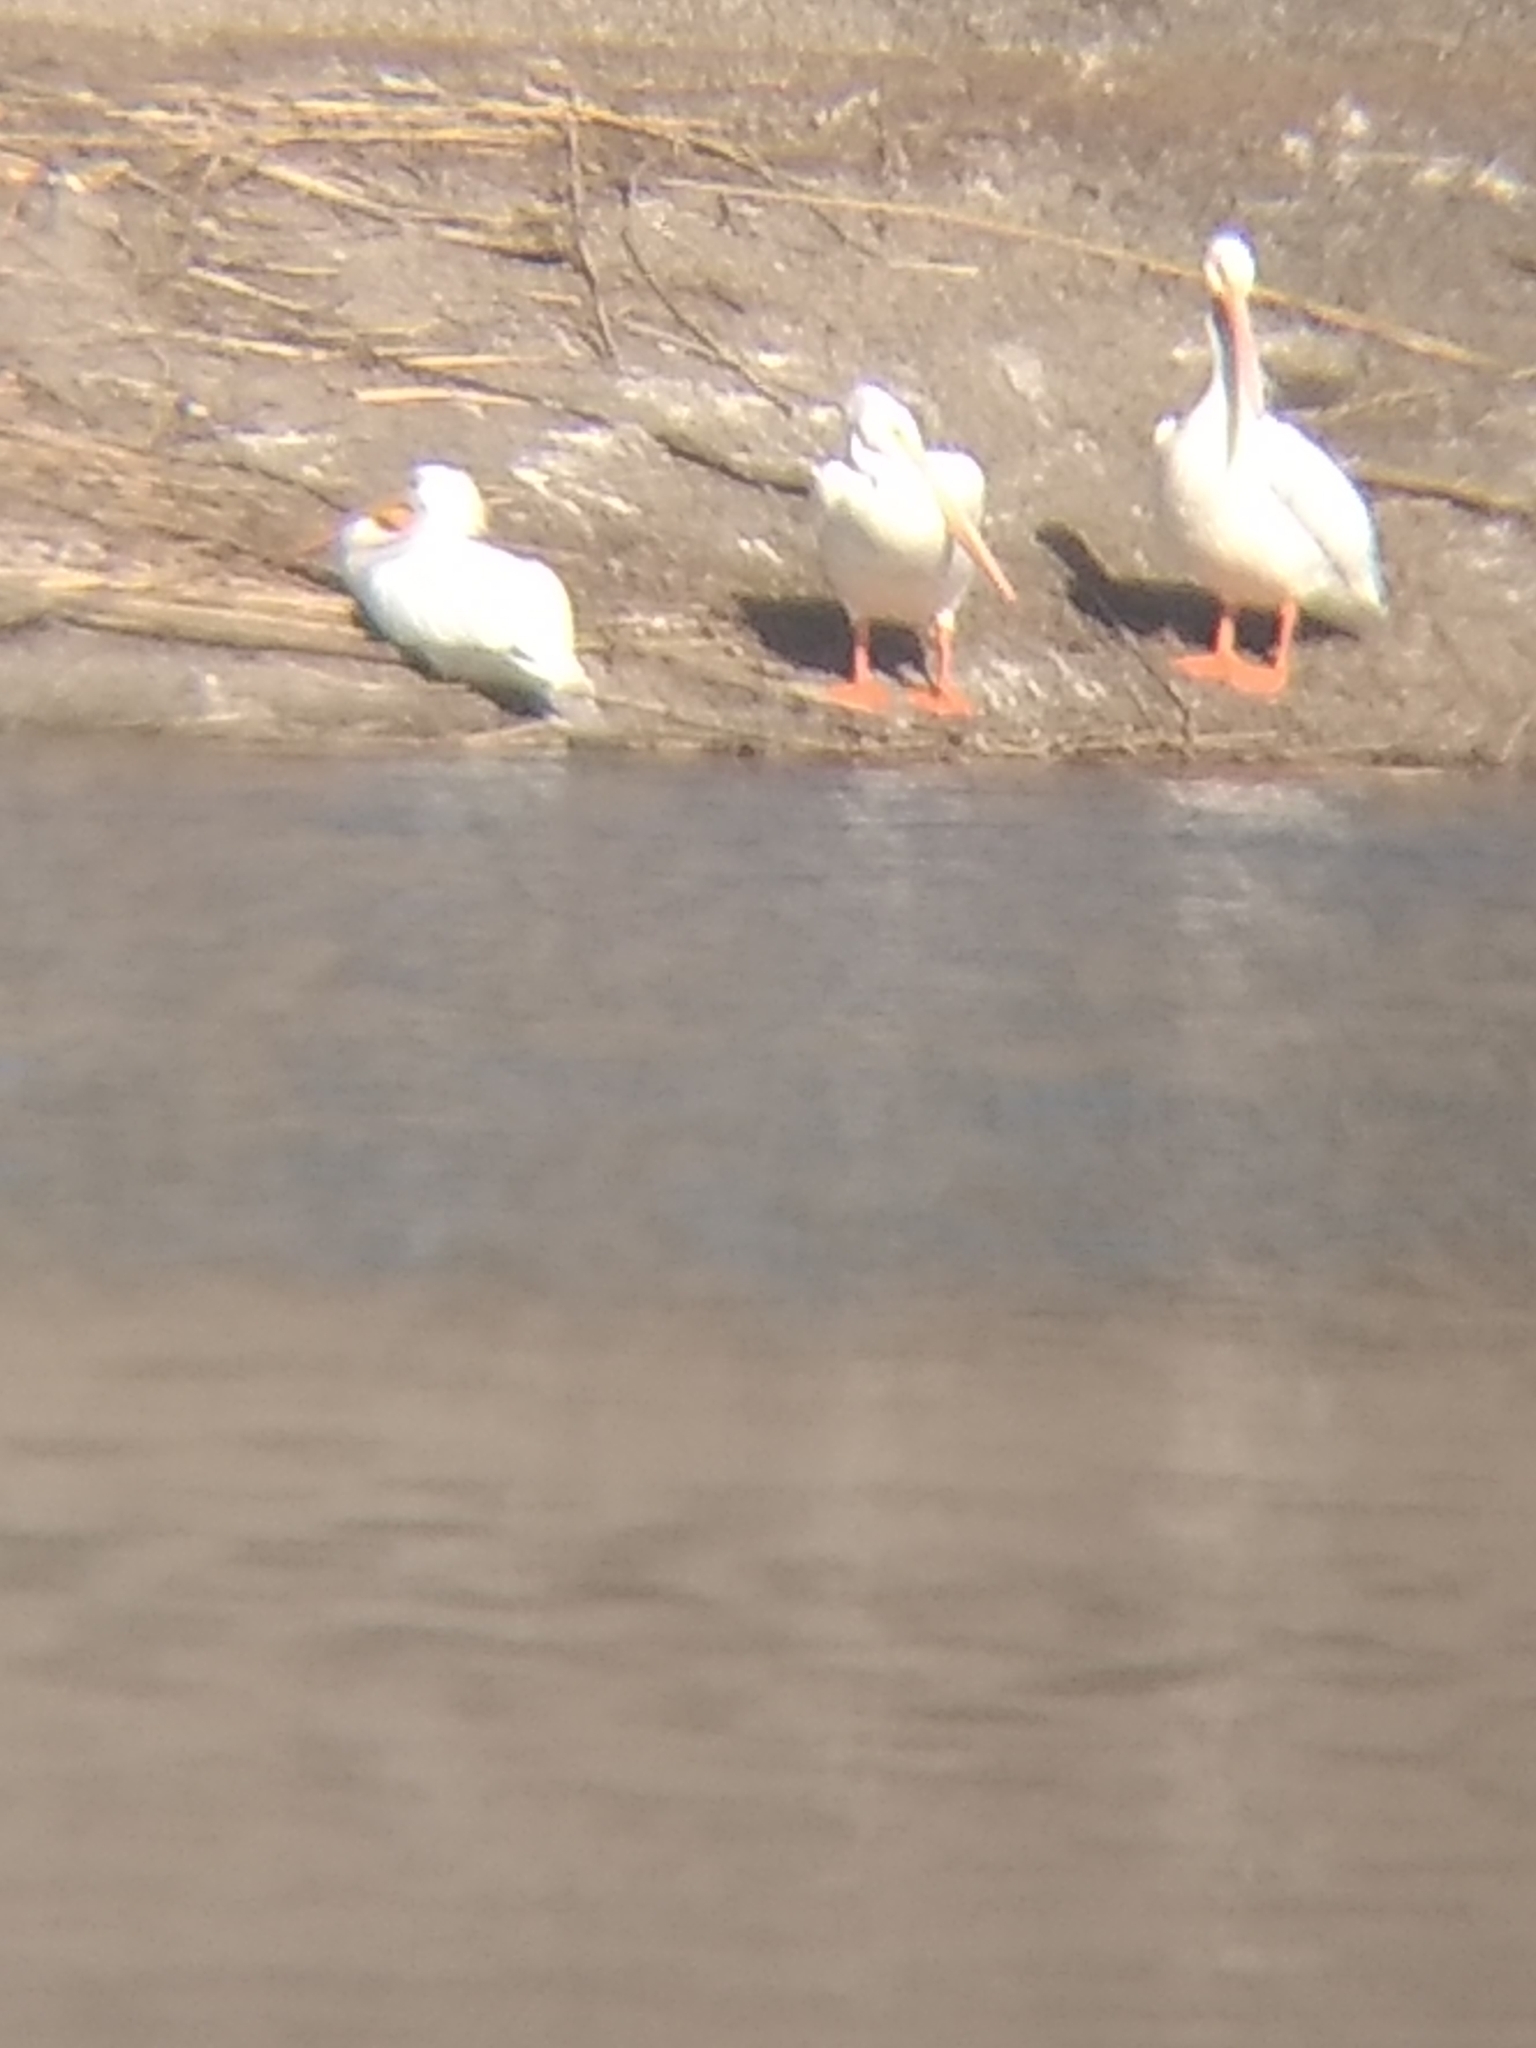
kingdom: Animalia
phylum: Chordata
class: Aves
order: Pelecaniformes
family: Pelecanidae
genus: Pelecanus
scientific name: Pelecanus erythrorhynchos
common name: American white pelican
